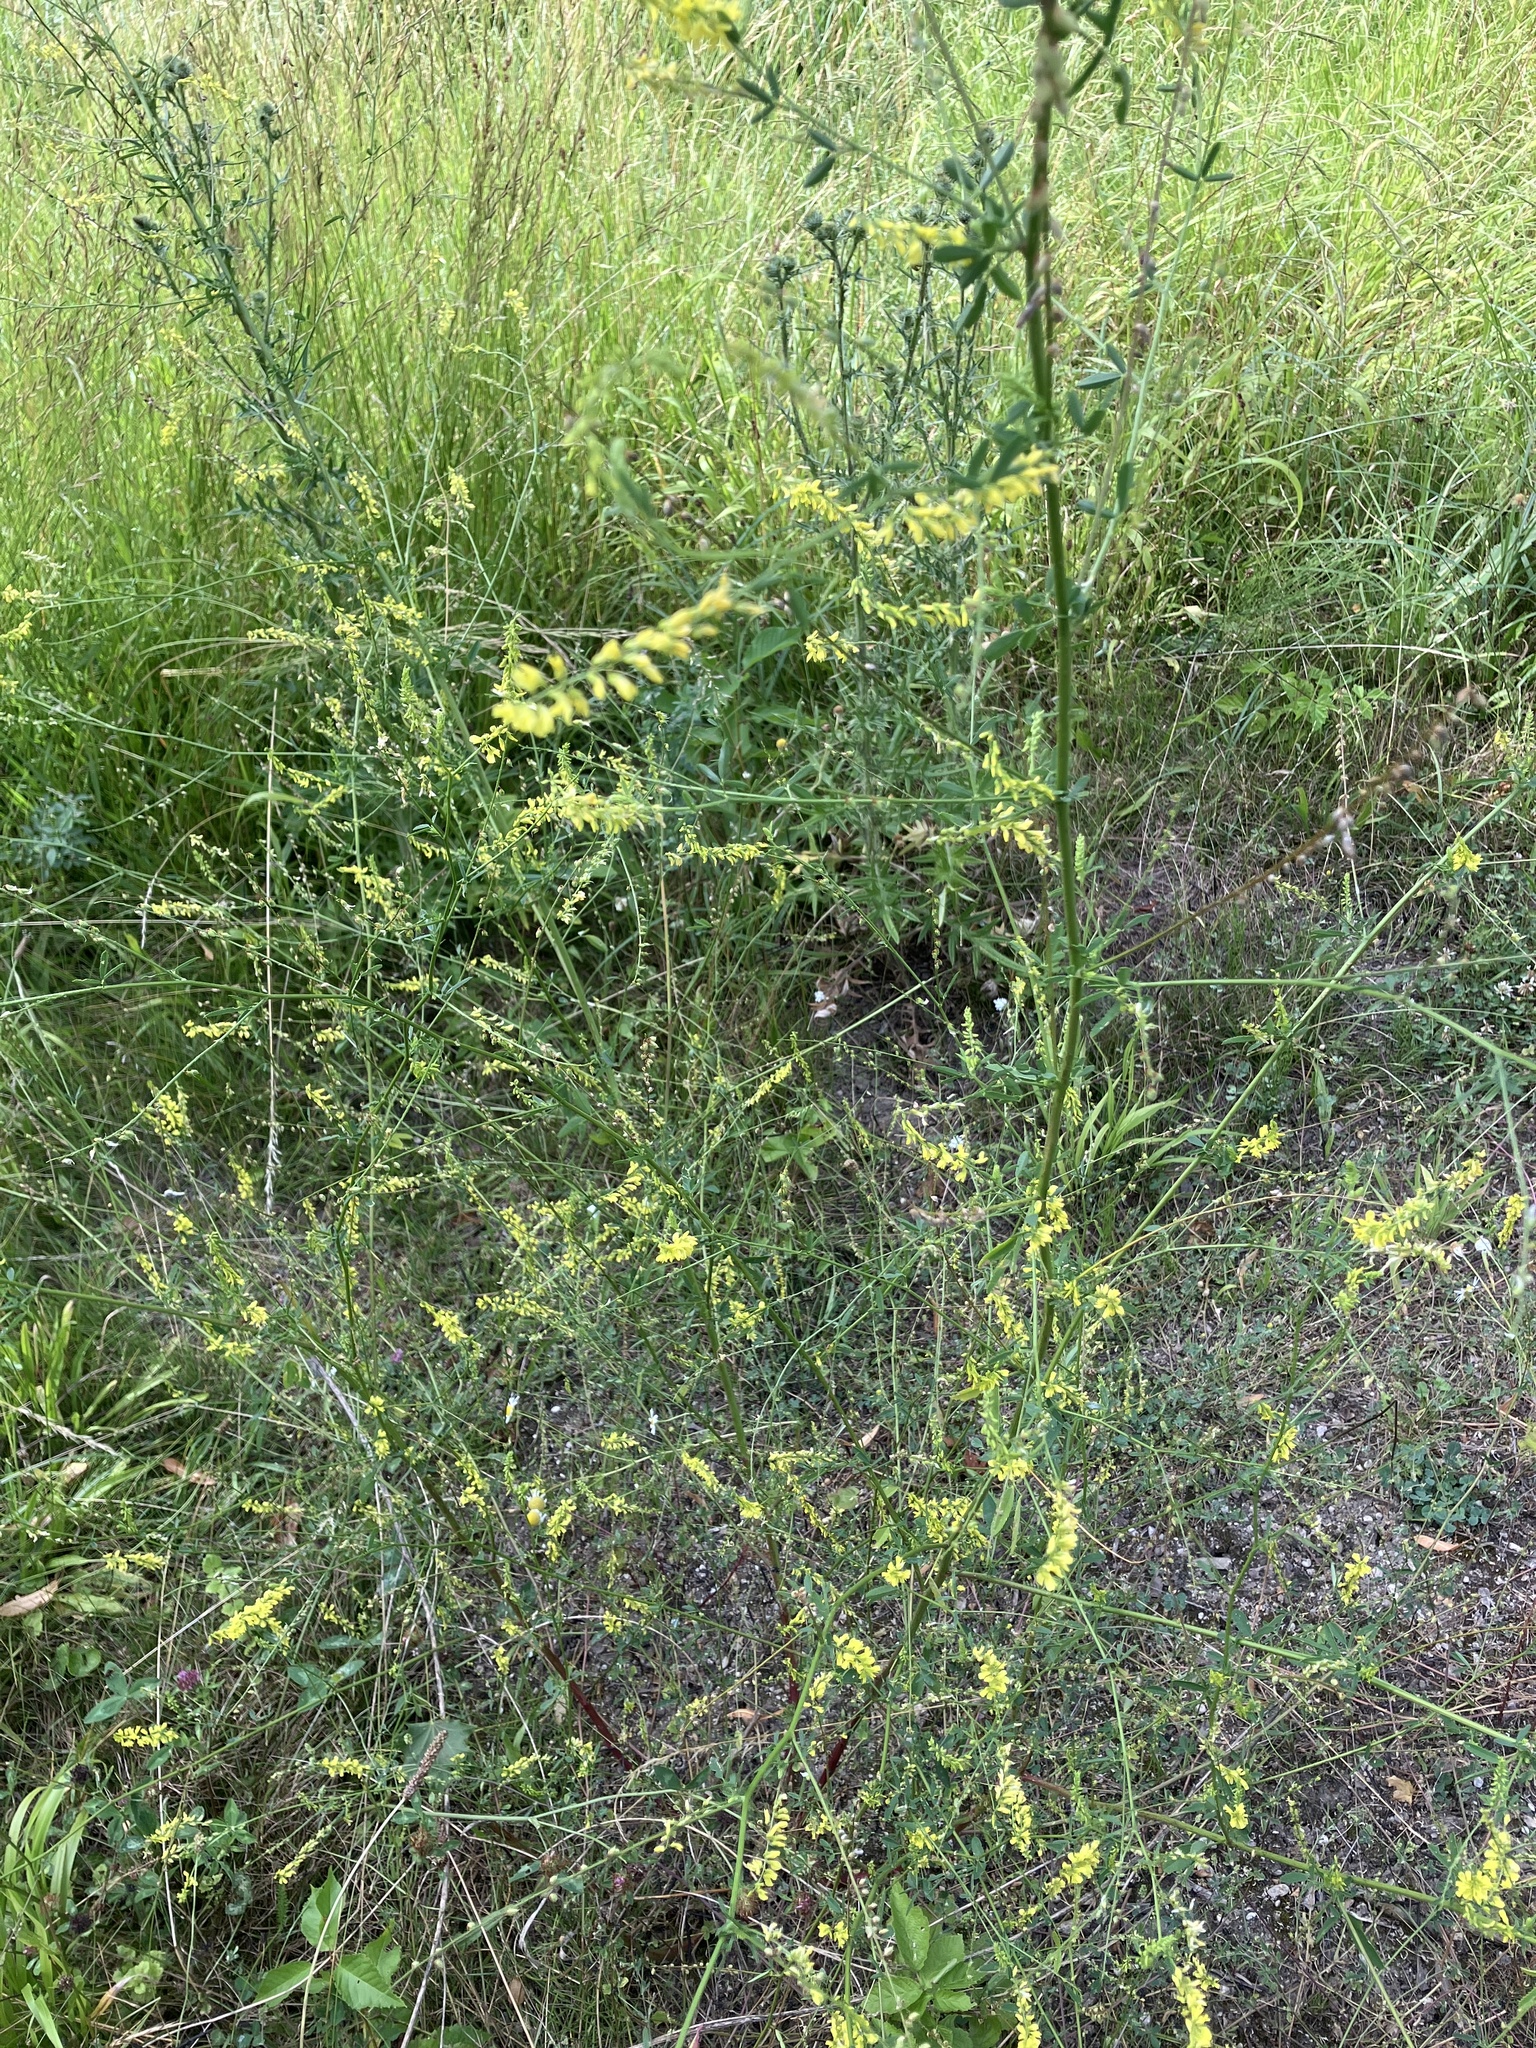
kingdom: Plantae
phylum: Tracheophyta
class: Magnoliopsida
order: Fabales
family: Fabaceae
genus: Melilotus
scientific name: Melilotus officinalis
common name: Sweetclover
